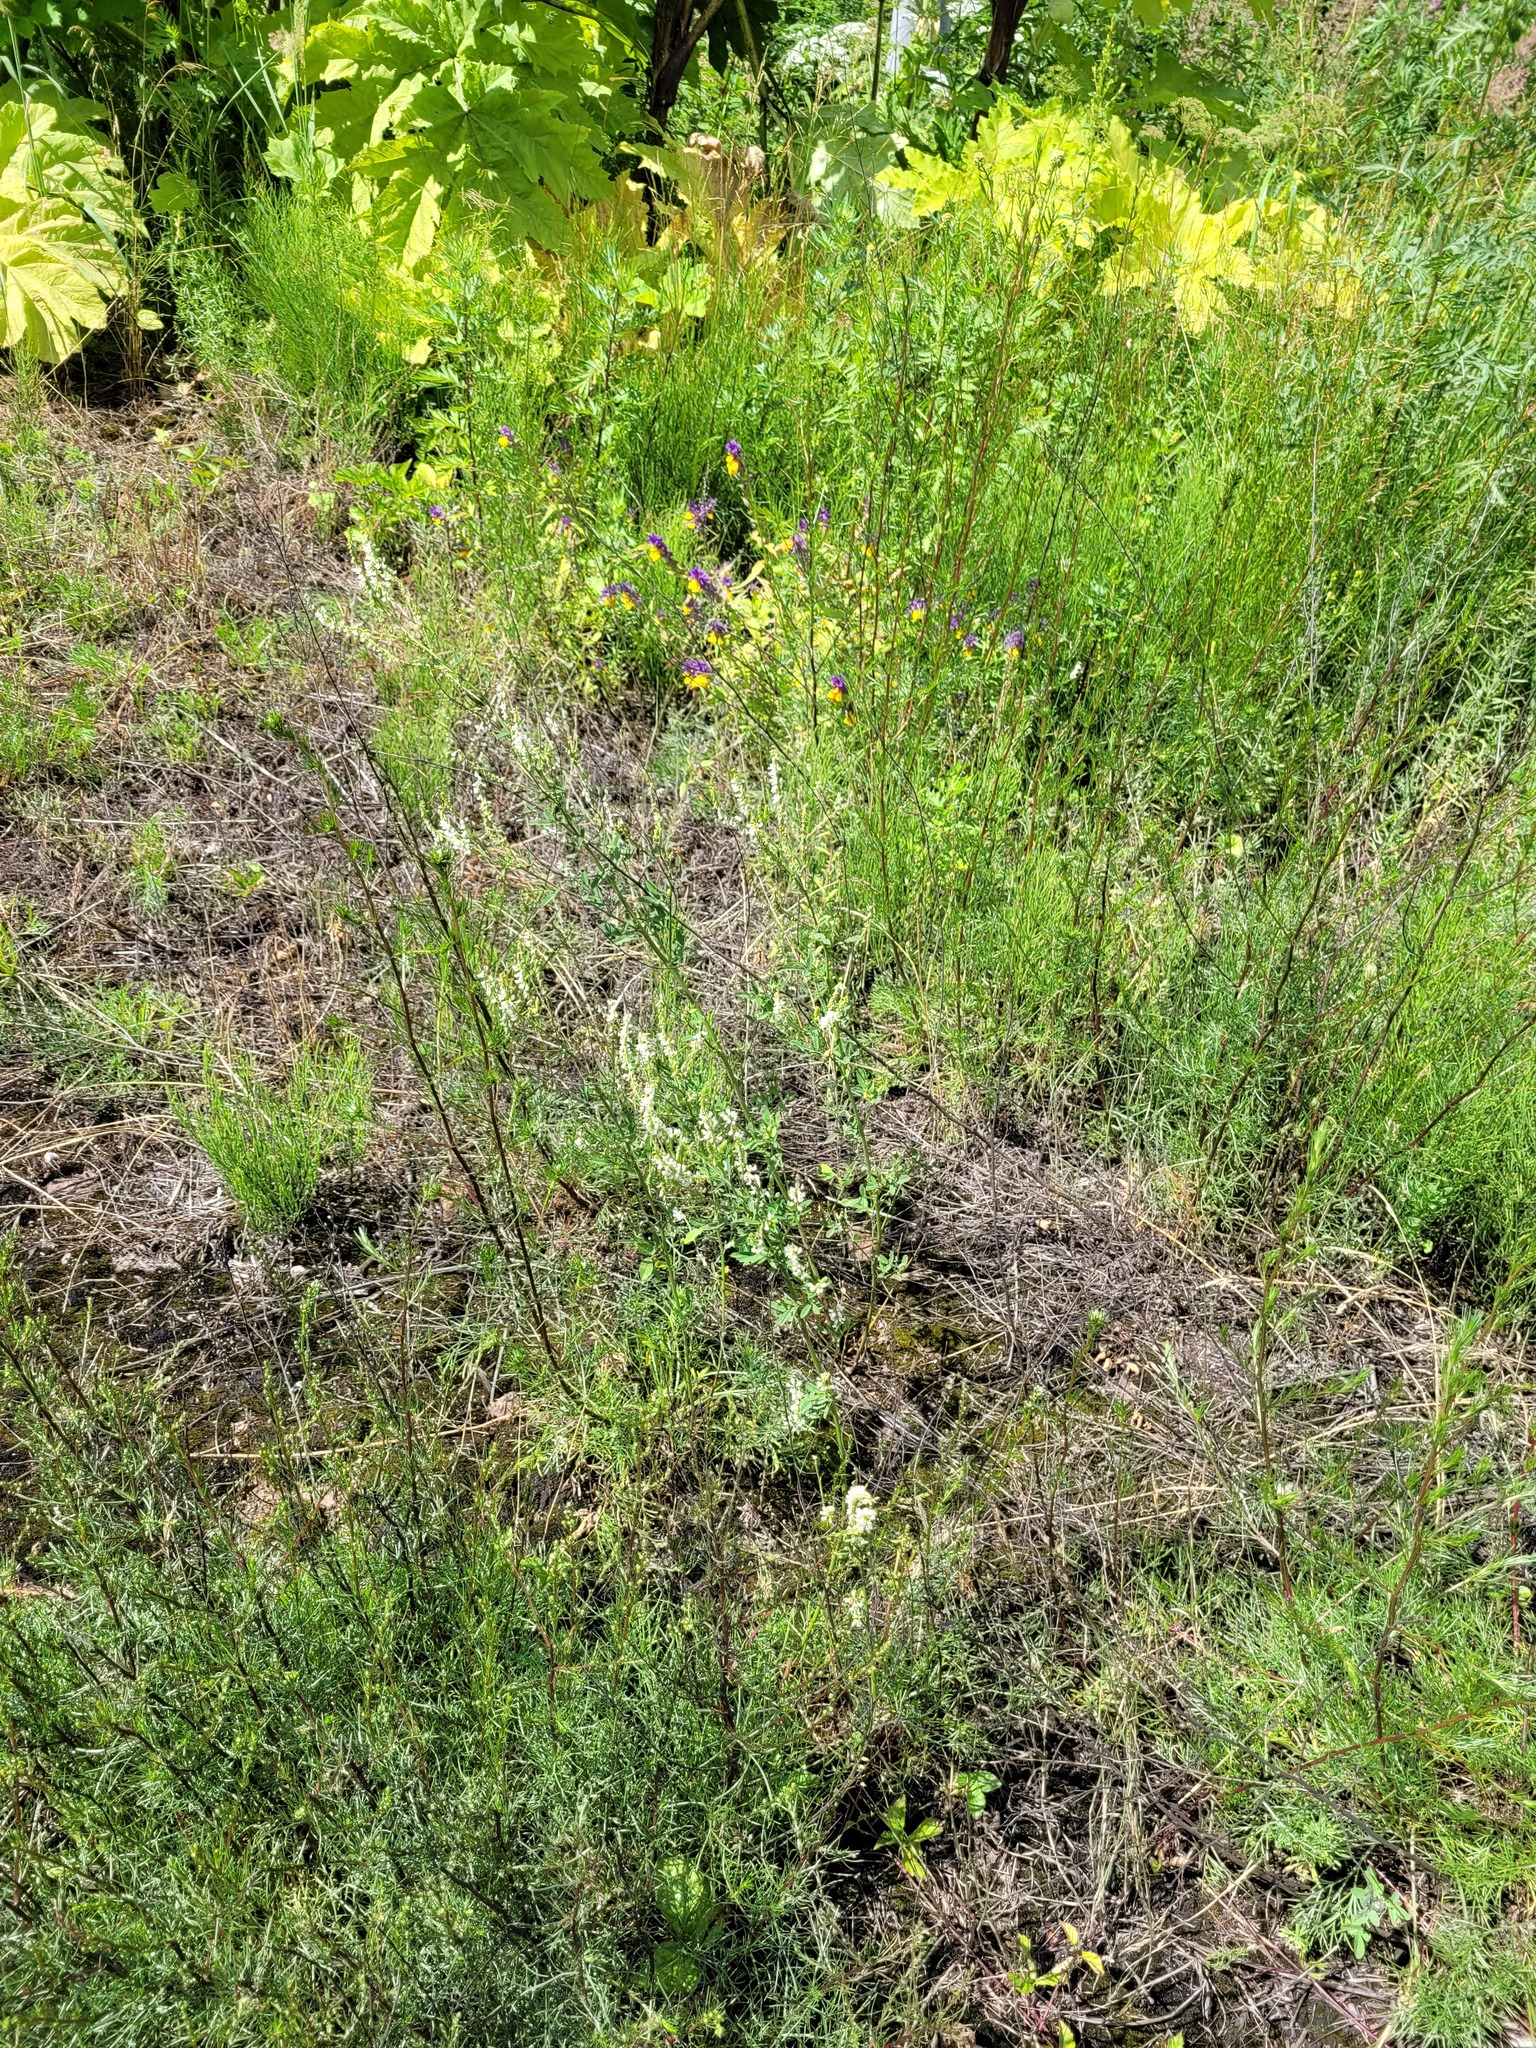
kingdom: Plantae
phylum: Tracheophyta
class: Magnoliopsida
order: Fabales
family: Fabaceae
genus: Melilotus
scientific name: Melilotus albus
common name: White melilot
